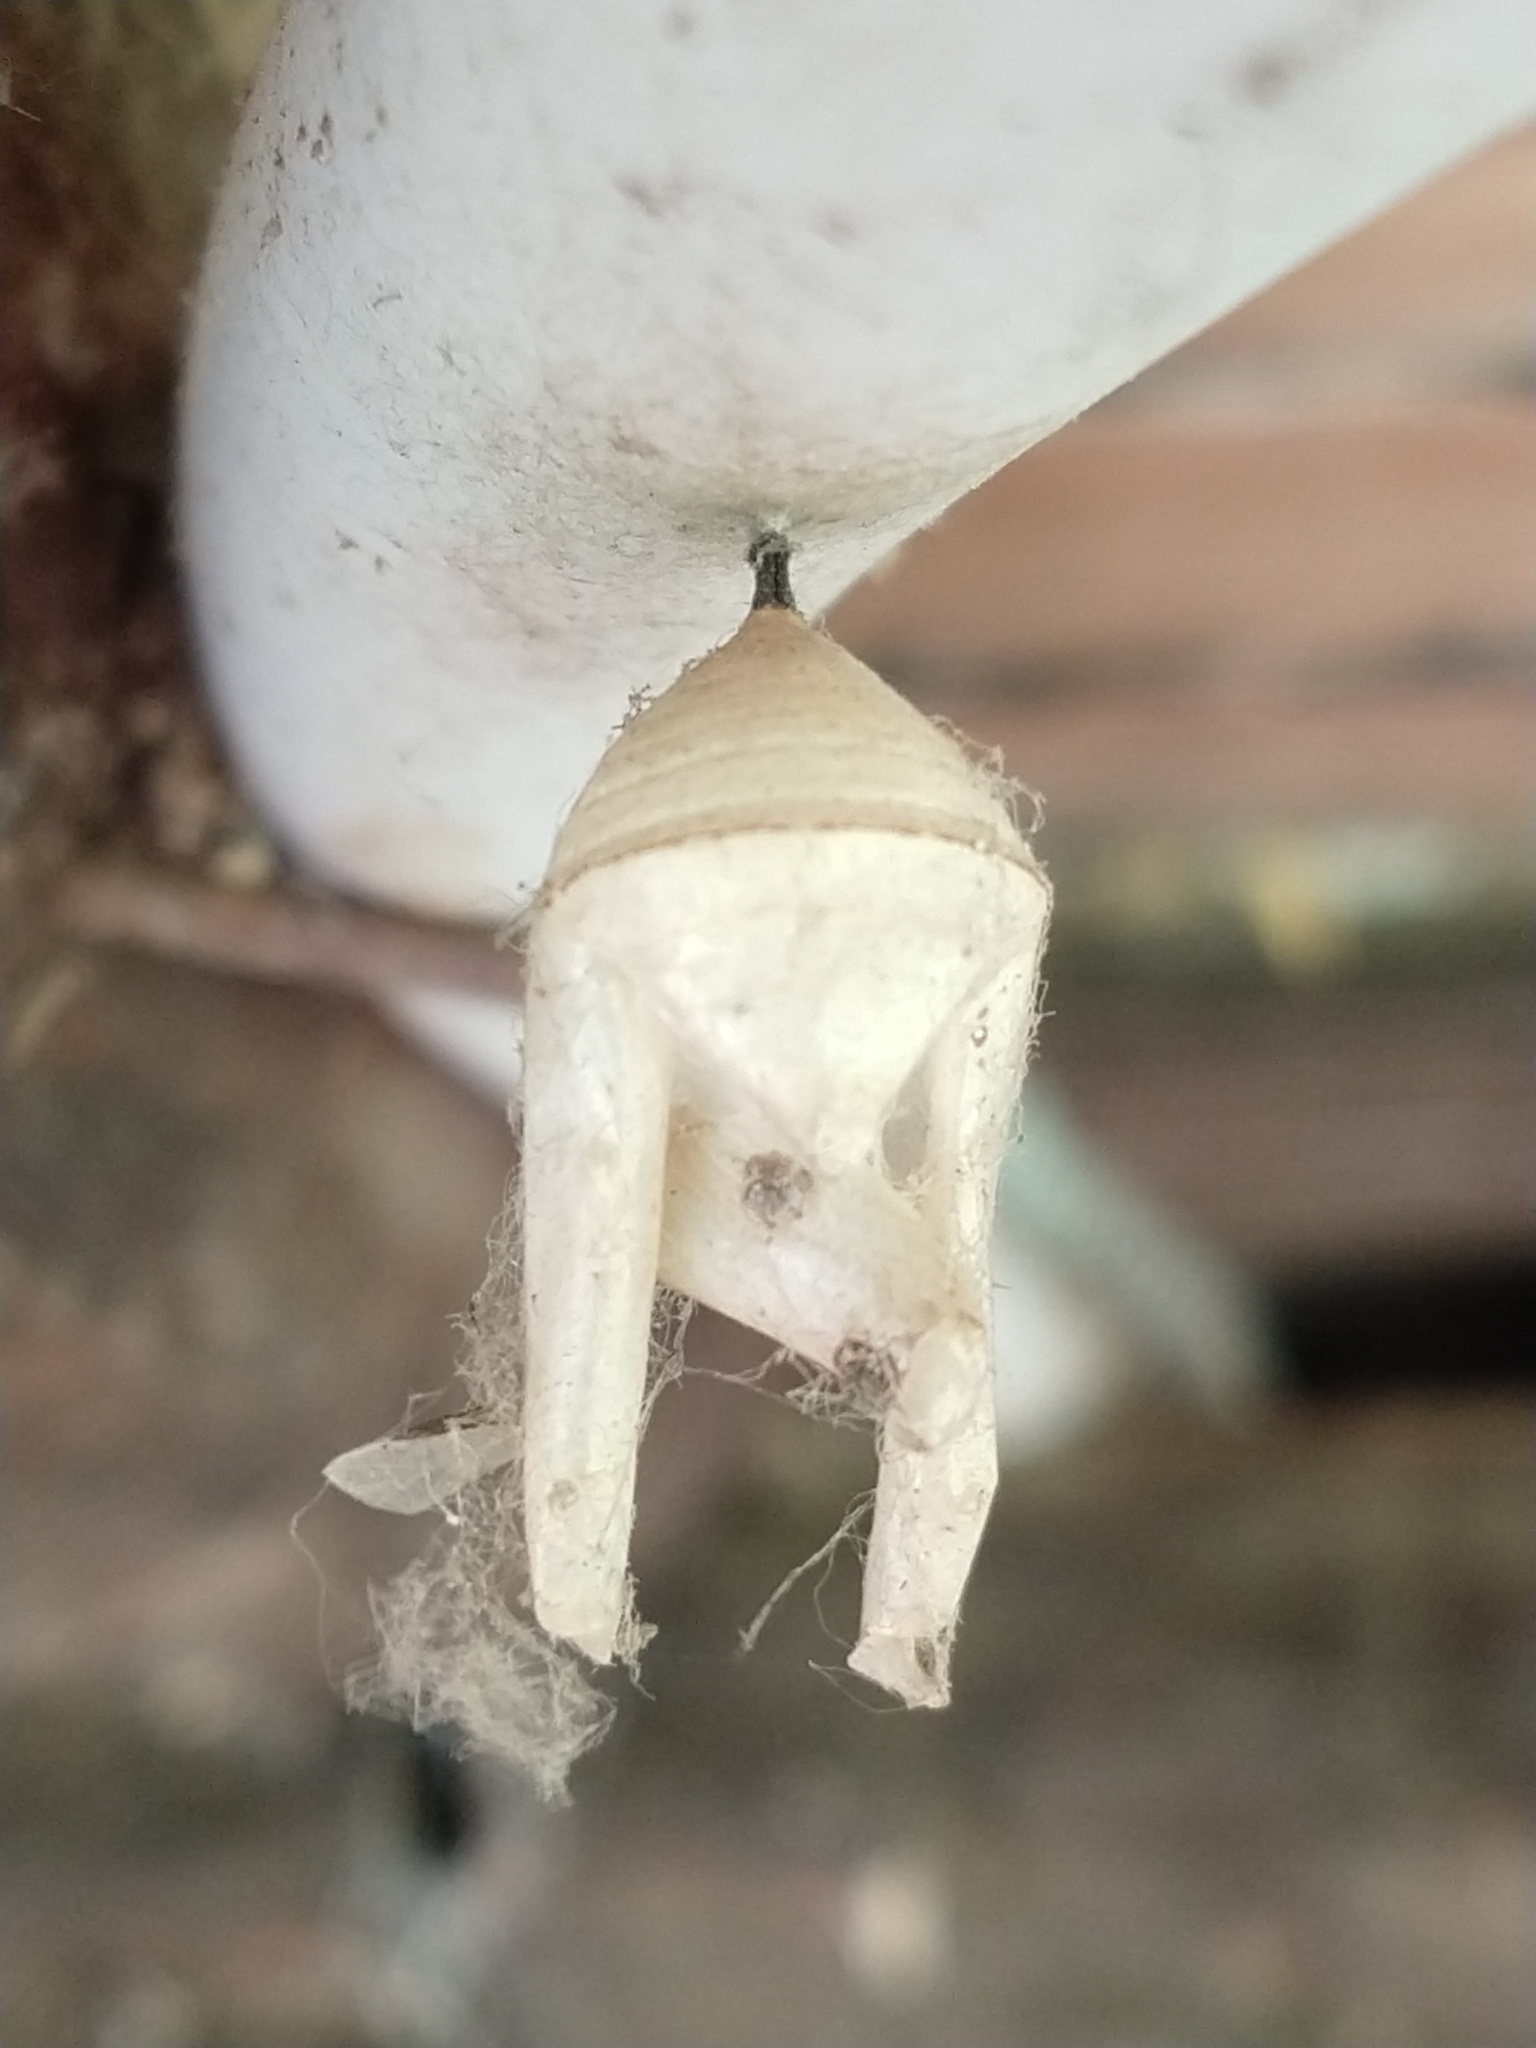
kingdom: Animalia
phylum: Arthropoda
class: Insecta
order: Lepidoptera
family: Nymphalidae
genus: Danaus
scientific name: Danaus erippus
